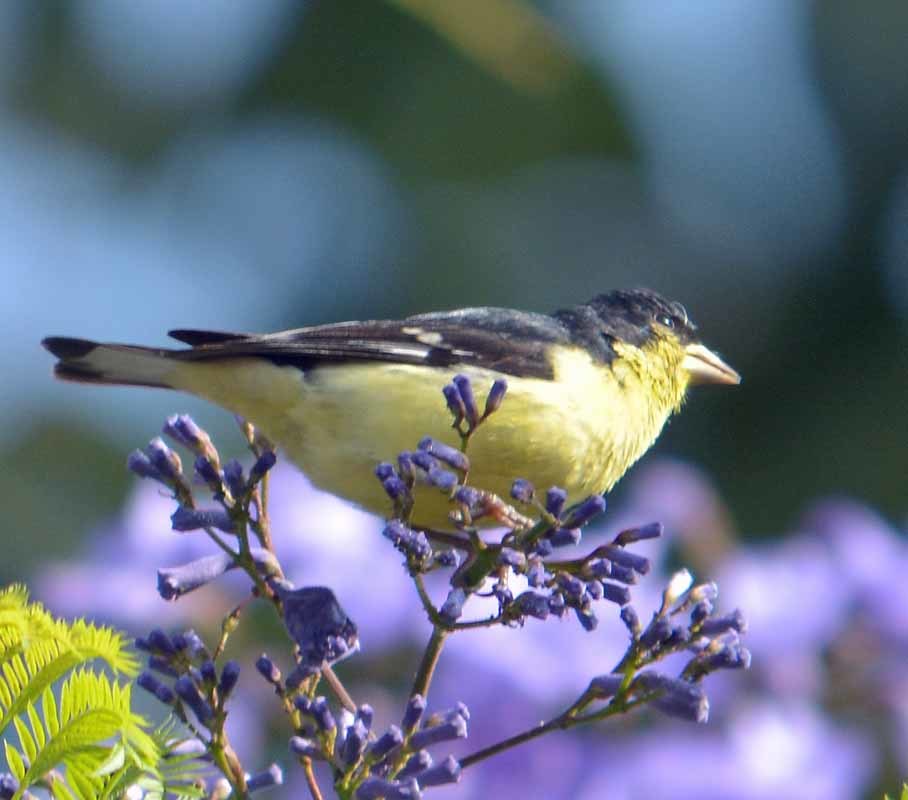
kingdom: Animalia
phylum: Chordata
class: Aves
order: Passeriformes
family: Fringillidae
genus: Spinus
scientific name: Spinus psaltria
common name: Lesser goldfinch
